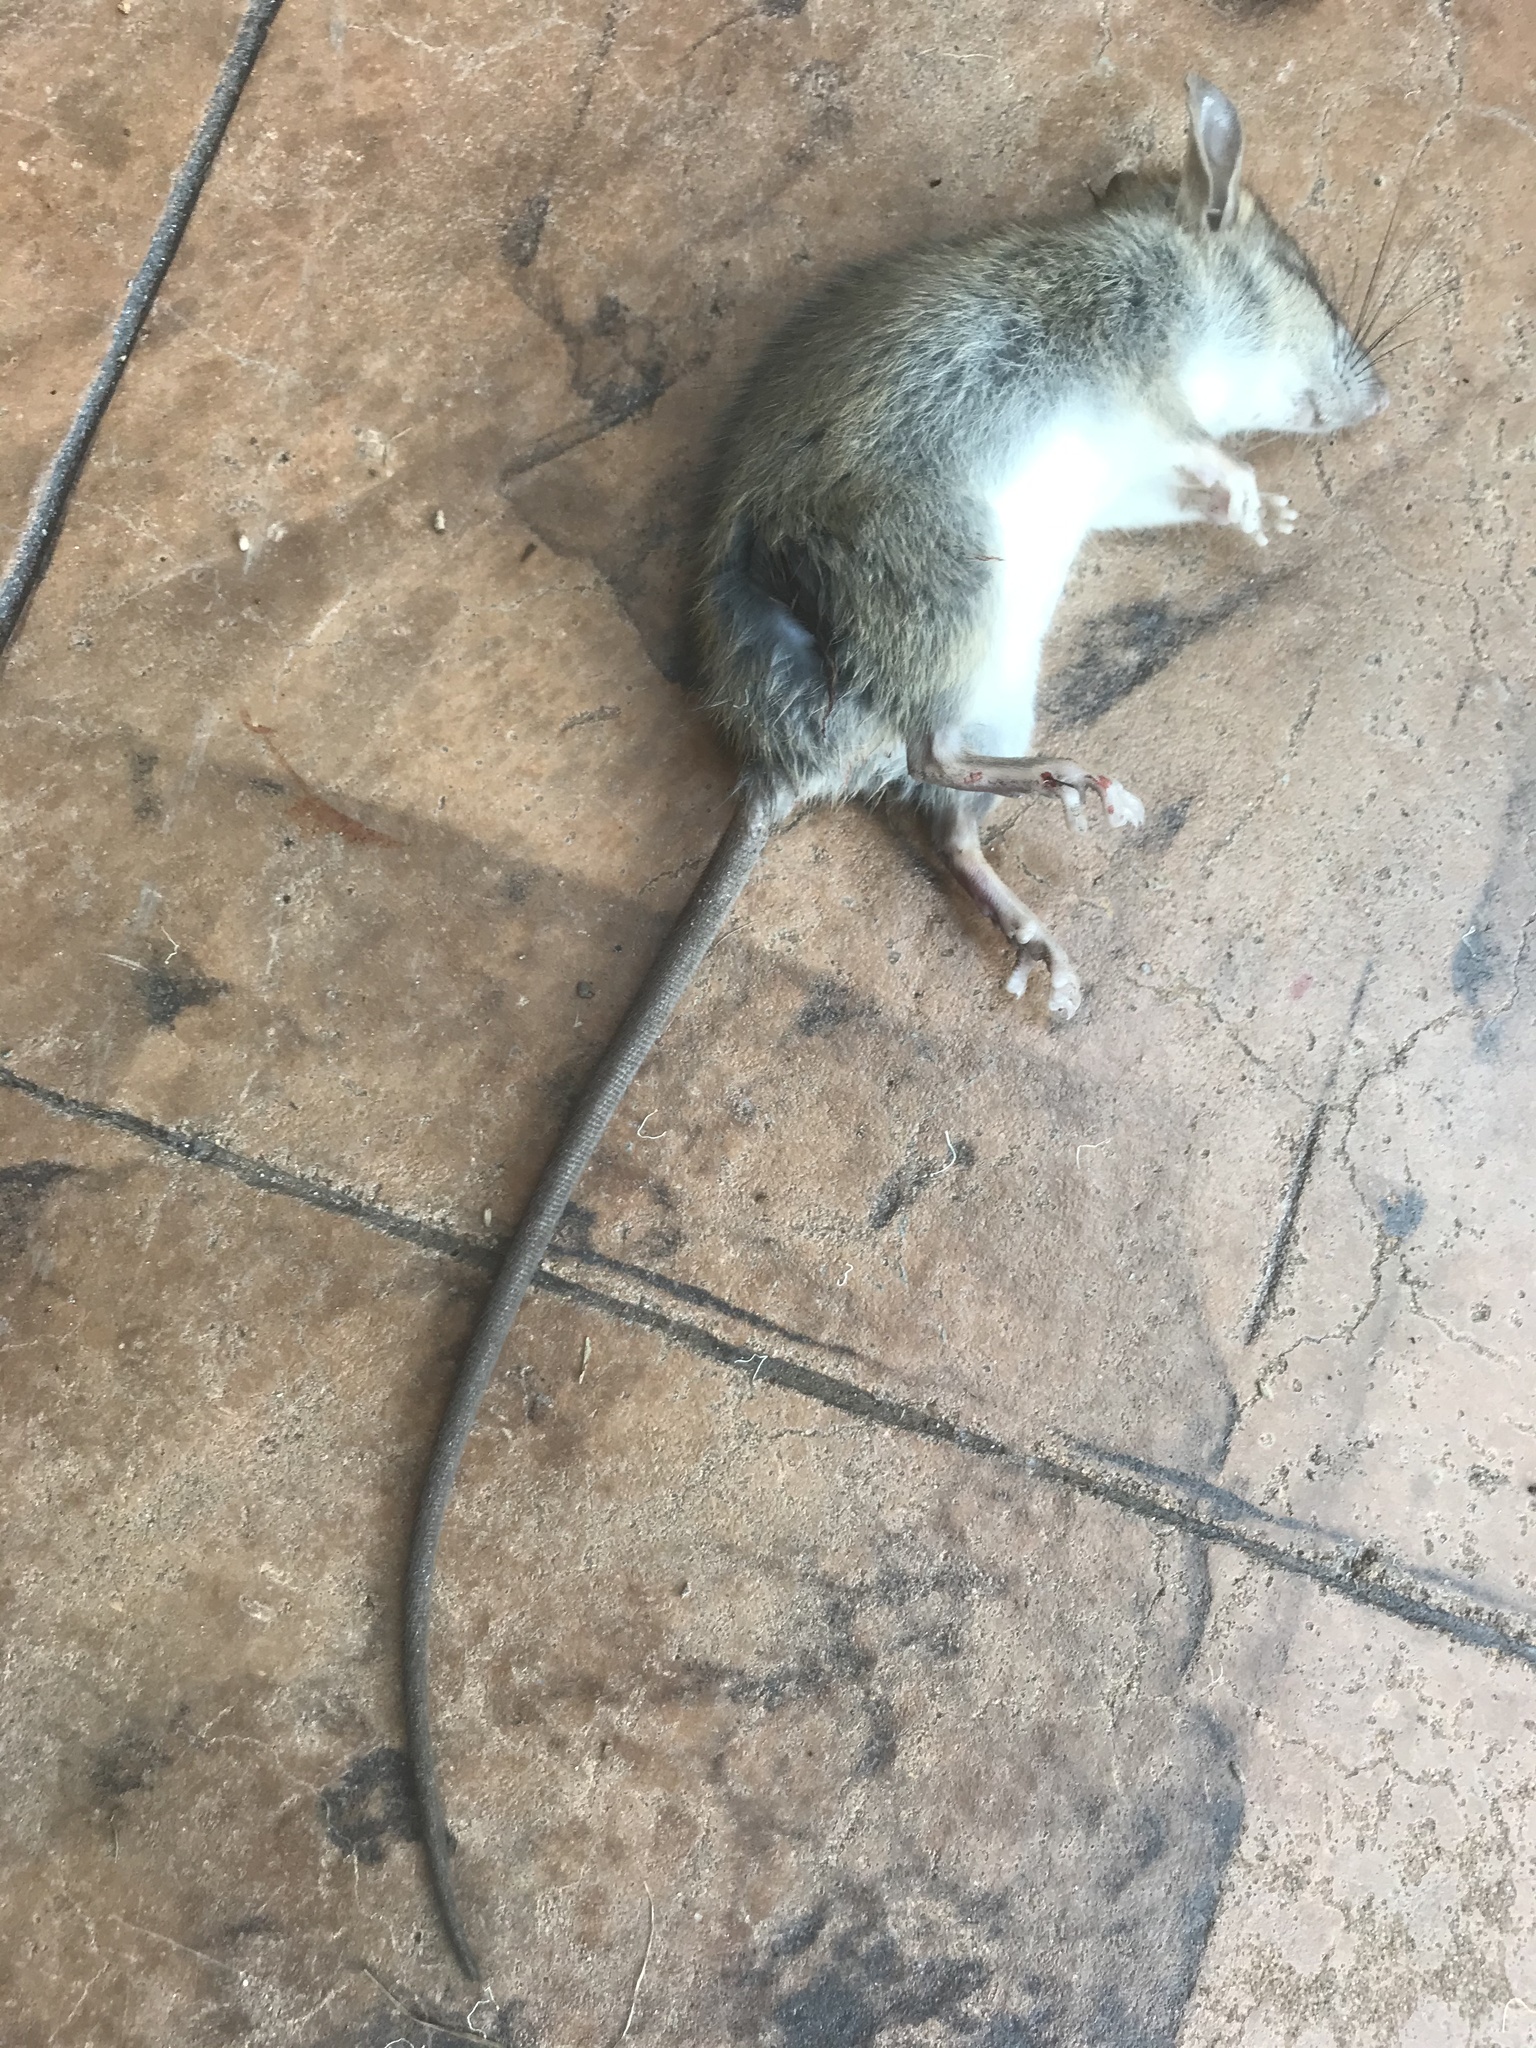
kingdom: Animalia
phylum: Chordata
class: Mammalia
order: Rodentia
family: Muridae
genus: Rattus
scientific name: Rattus rattus
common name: Black rat
